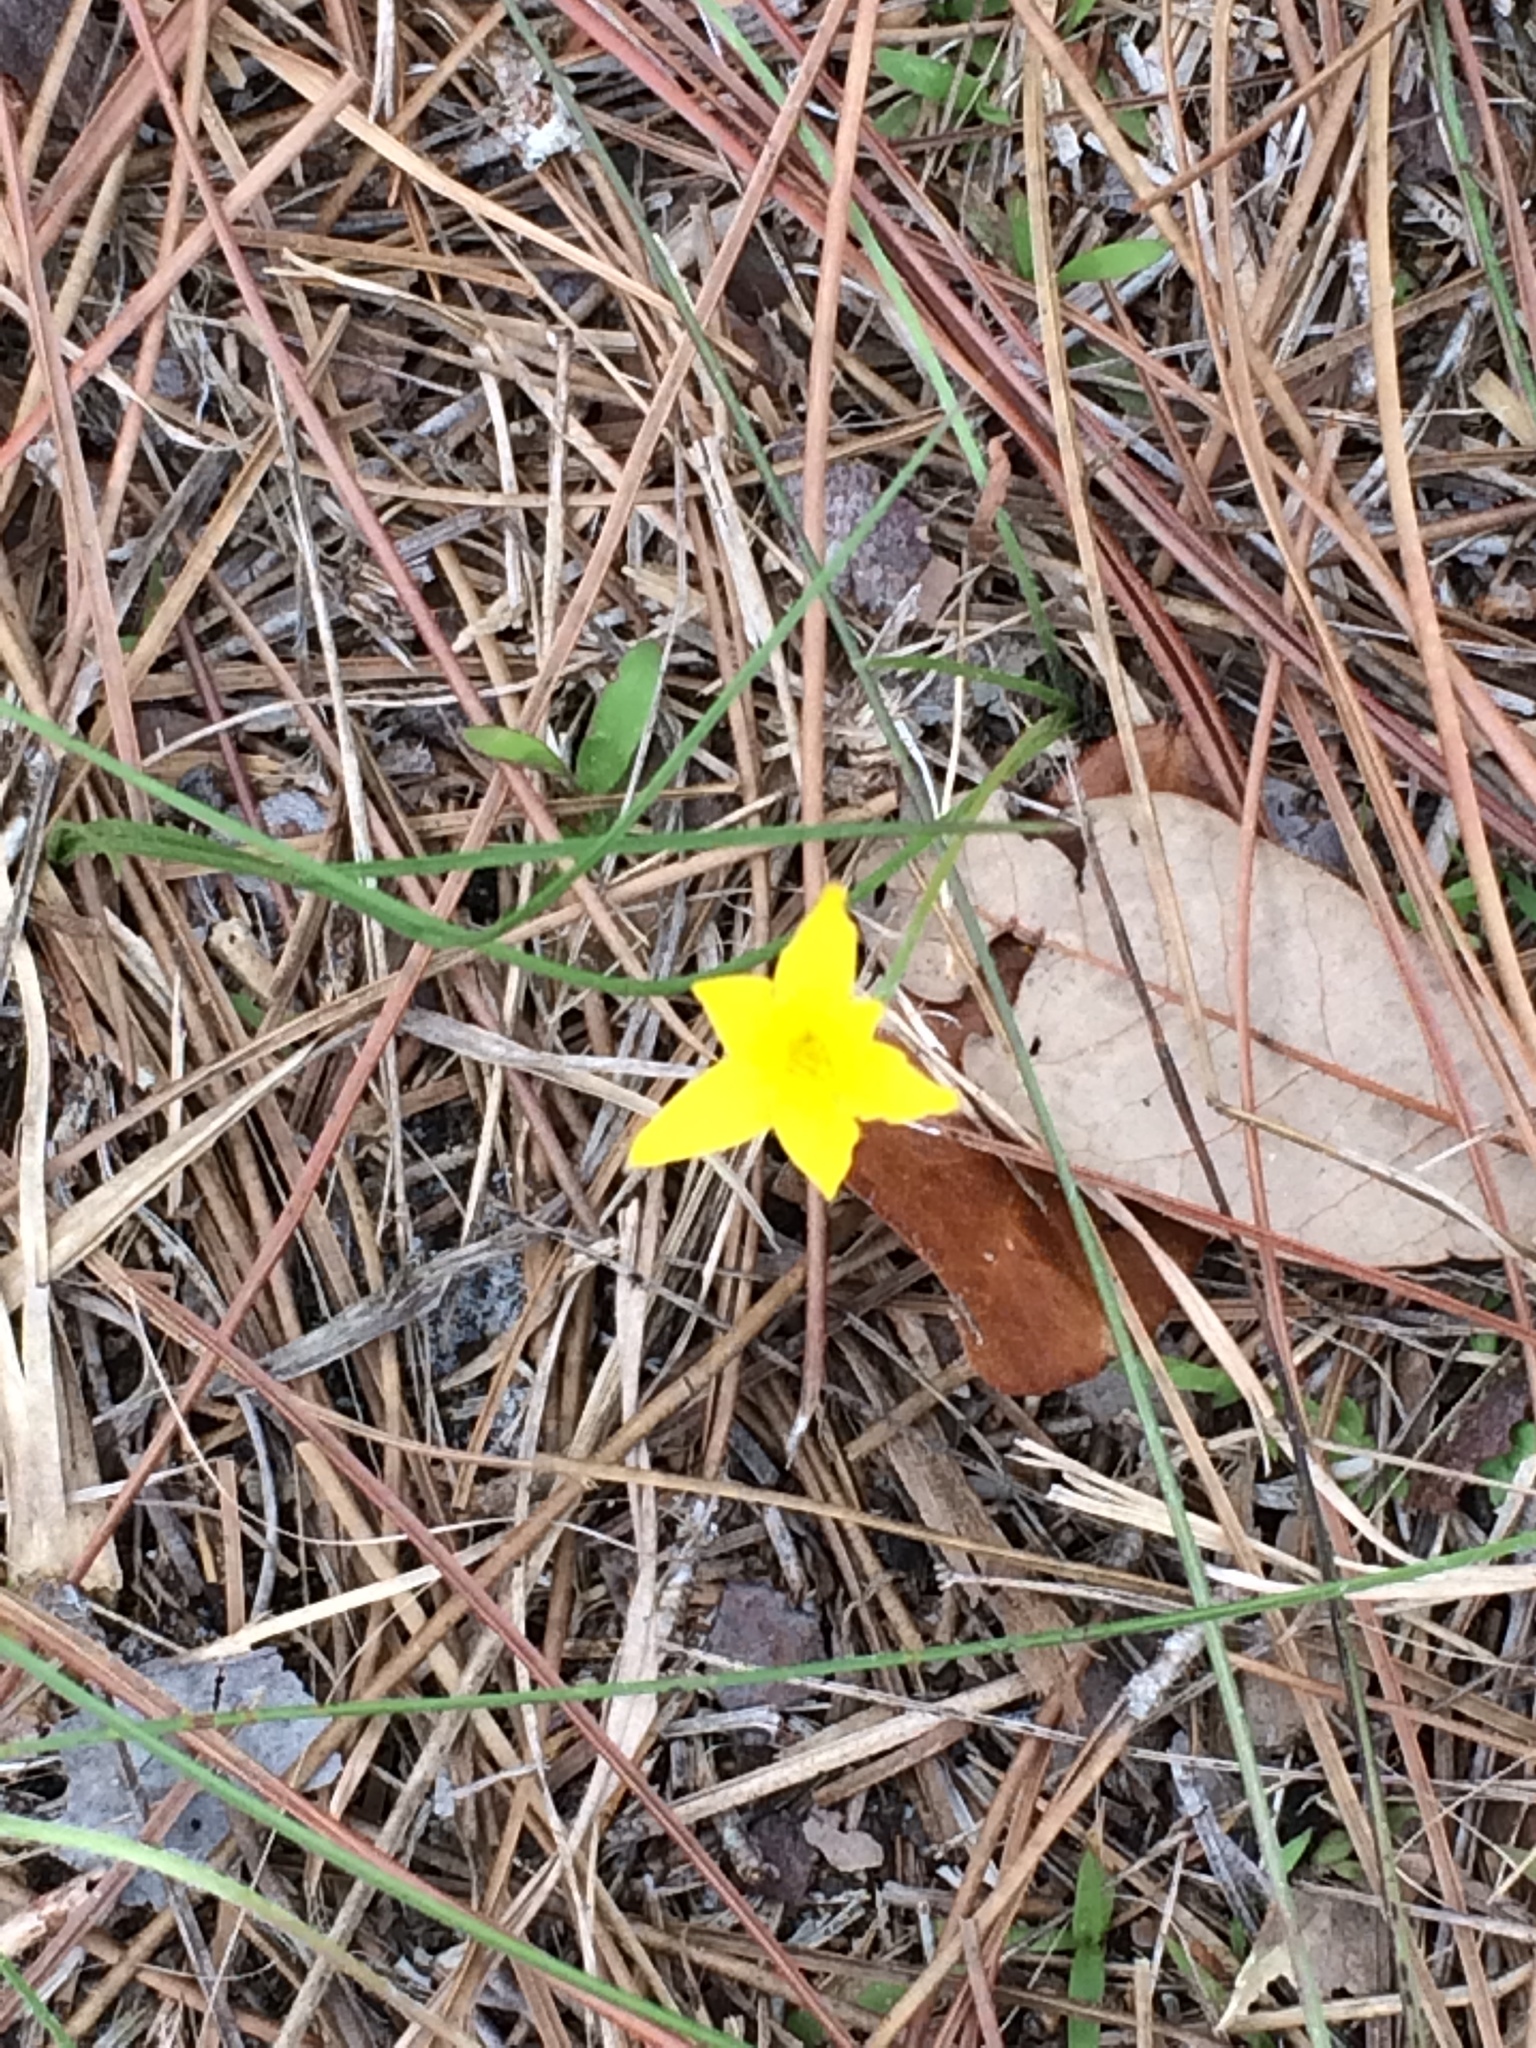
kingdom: Plantae
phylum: Tracheophyta
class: Liliopsida
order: Asparagales
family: Hypoxidaceae
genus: Hypoxis
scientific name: Hypoxis juncea
